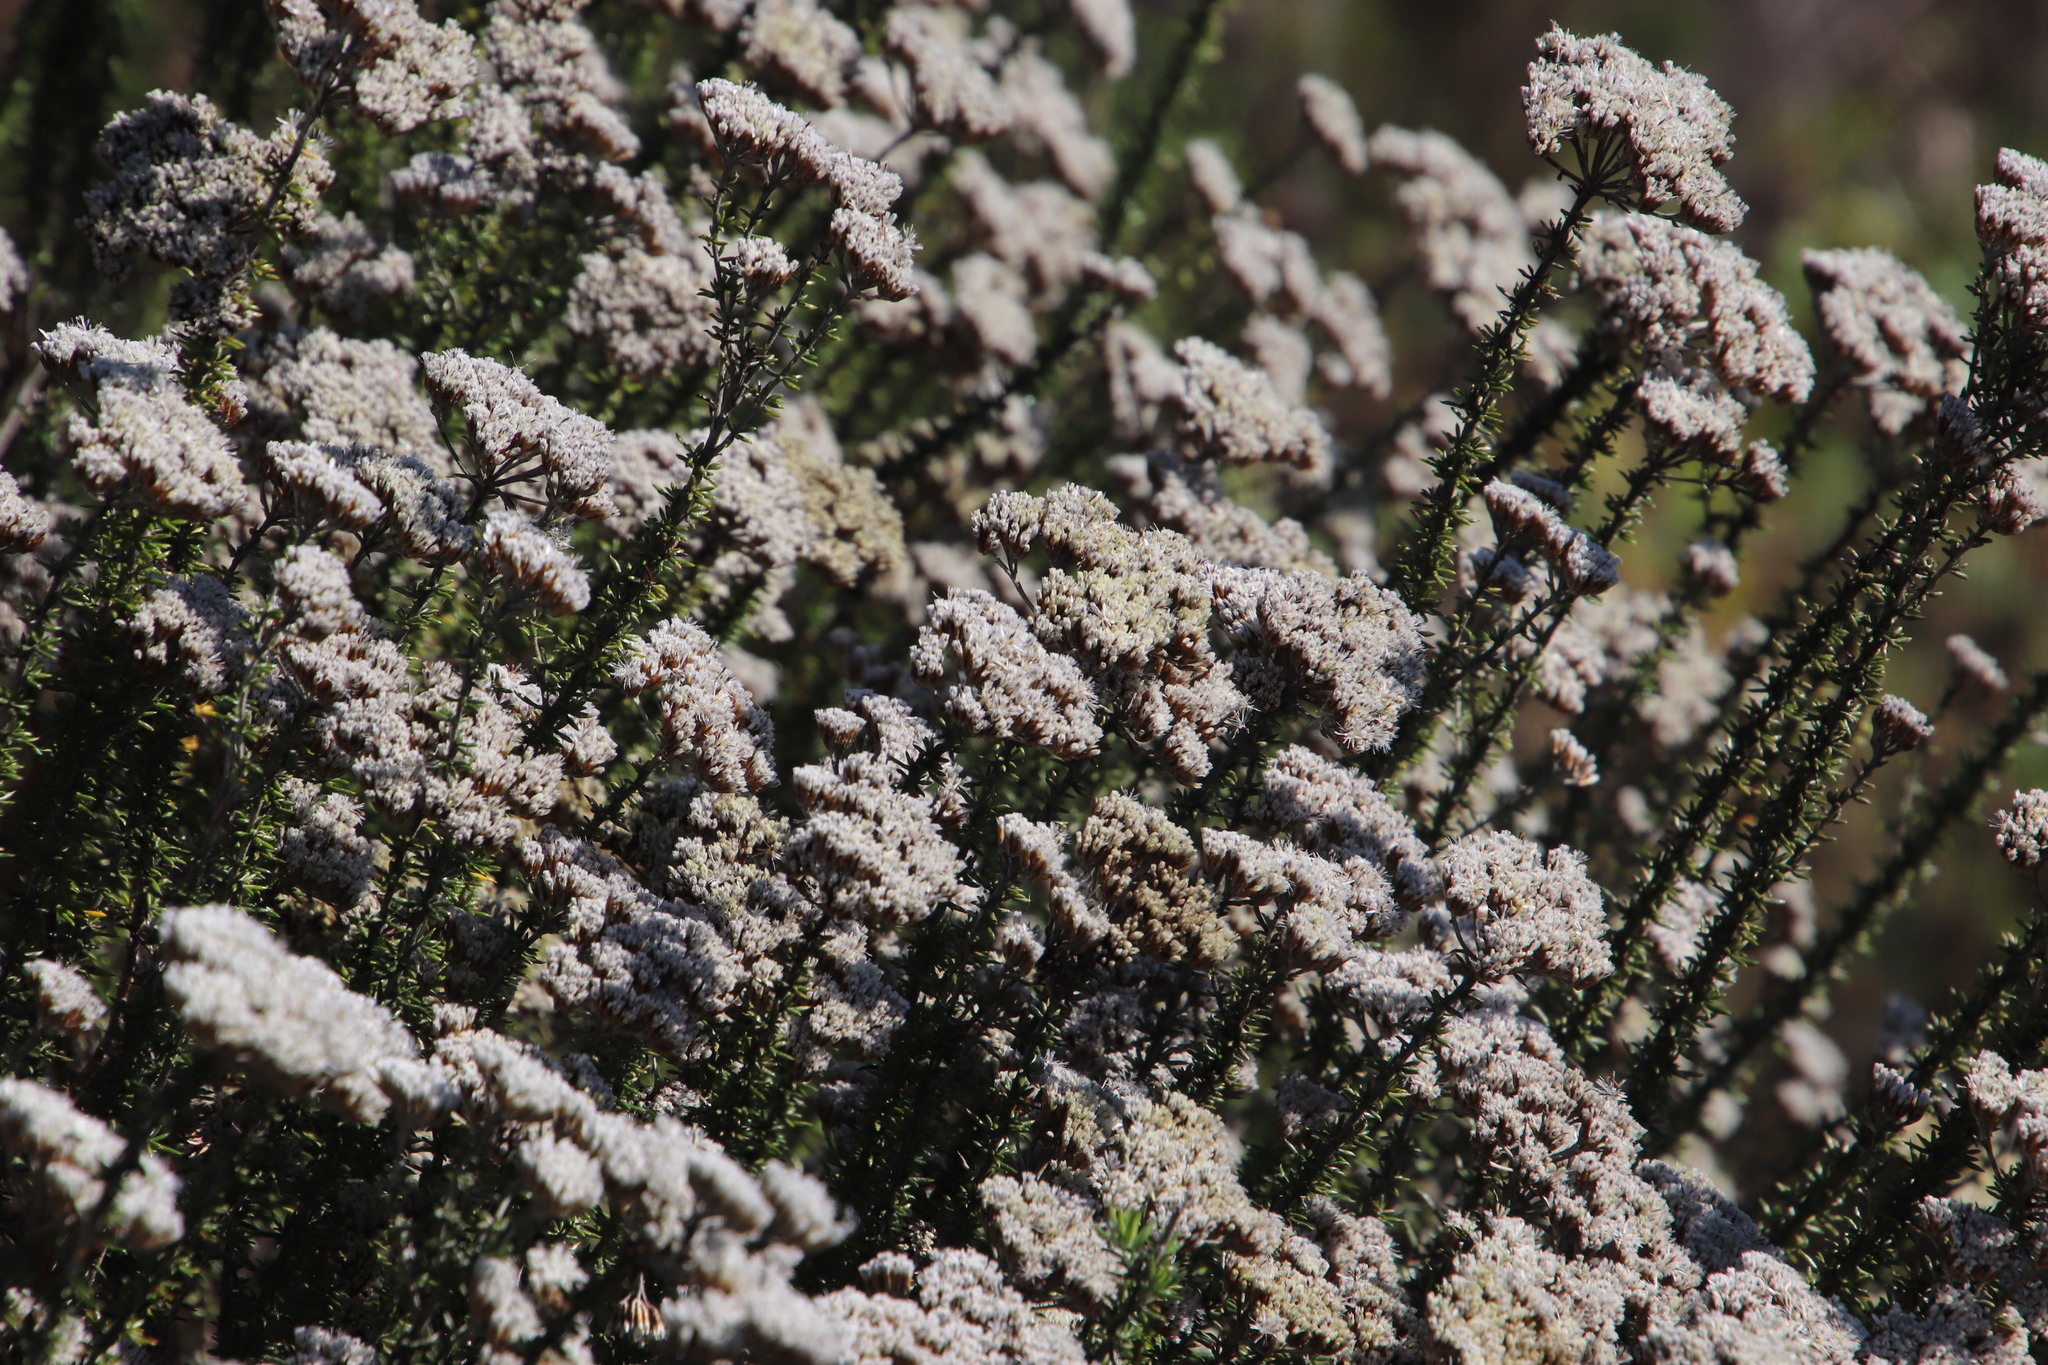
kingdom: Plantae
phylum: Tracheophyta
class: Magnoliopsida
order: Asterales
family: Asteraceae
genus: Metalasia
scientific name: Metalasia densa
